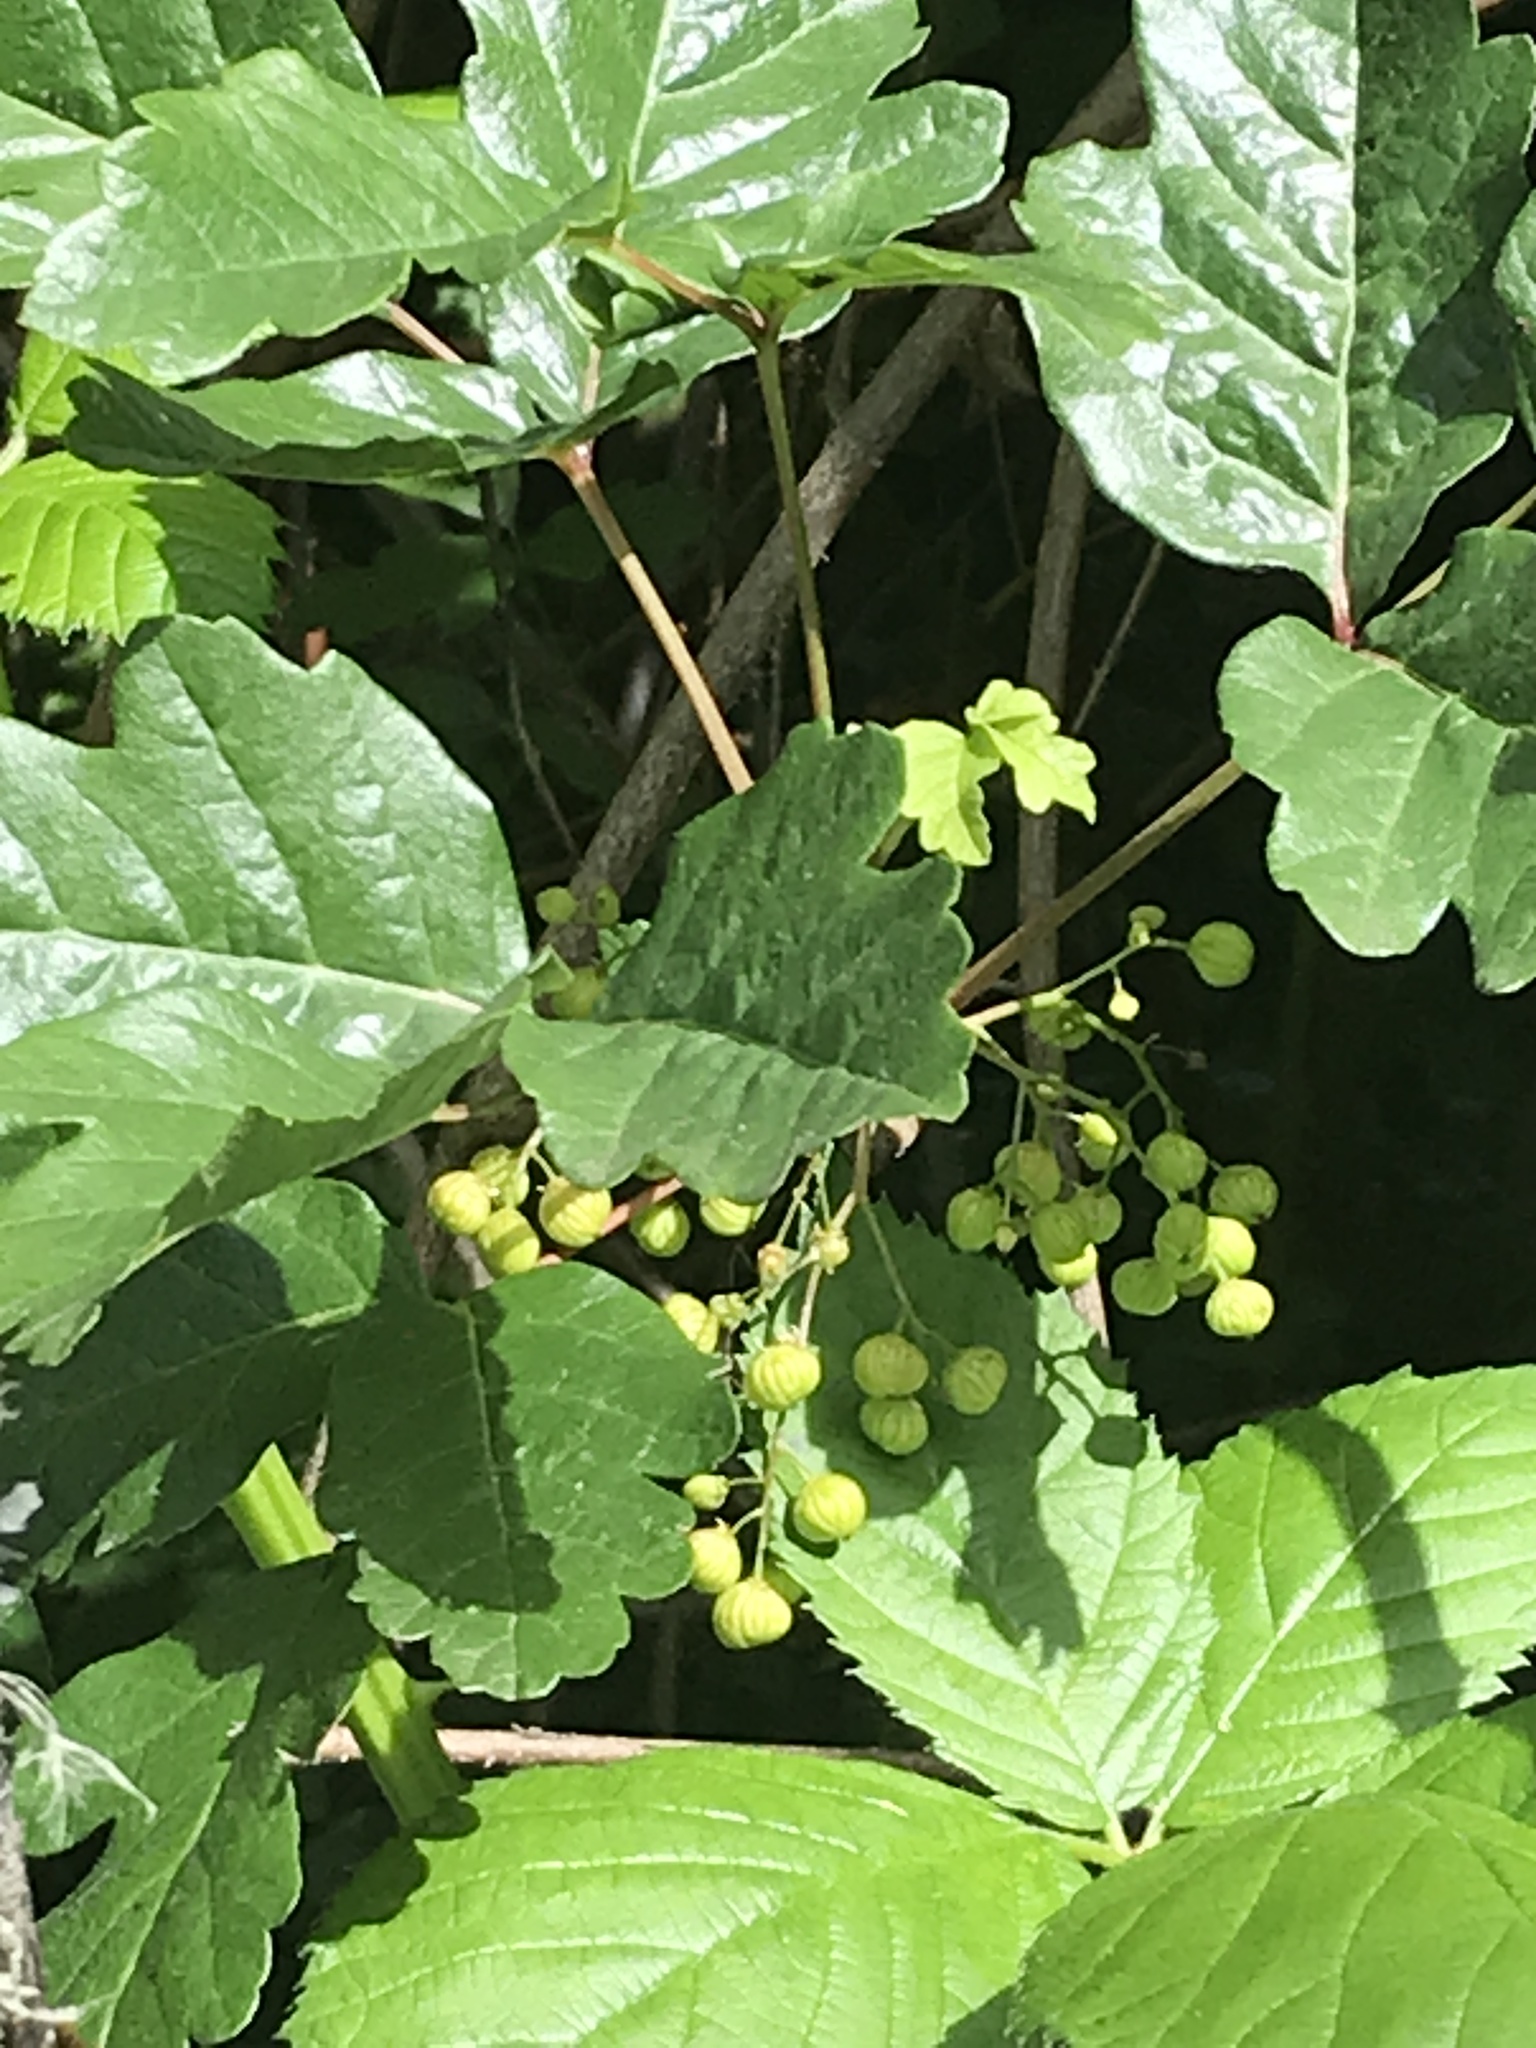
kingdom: Plantae
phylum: Tracheophyta
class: Magnoliopsida
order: Sapindales
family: Anacardiaceae
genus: Toxicodendron
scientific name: Toxicodendron diversilobum
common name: Pacific poison-oak
